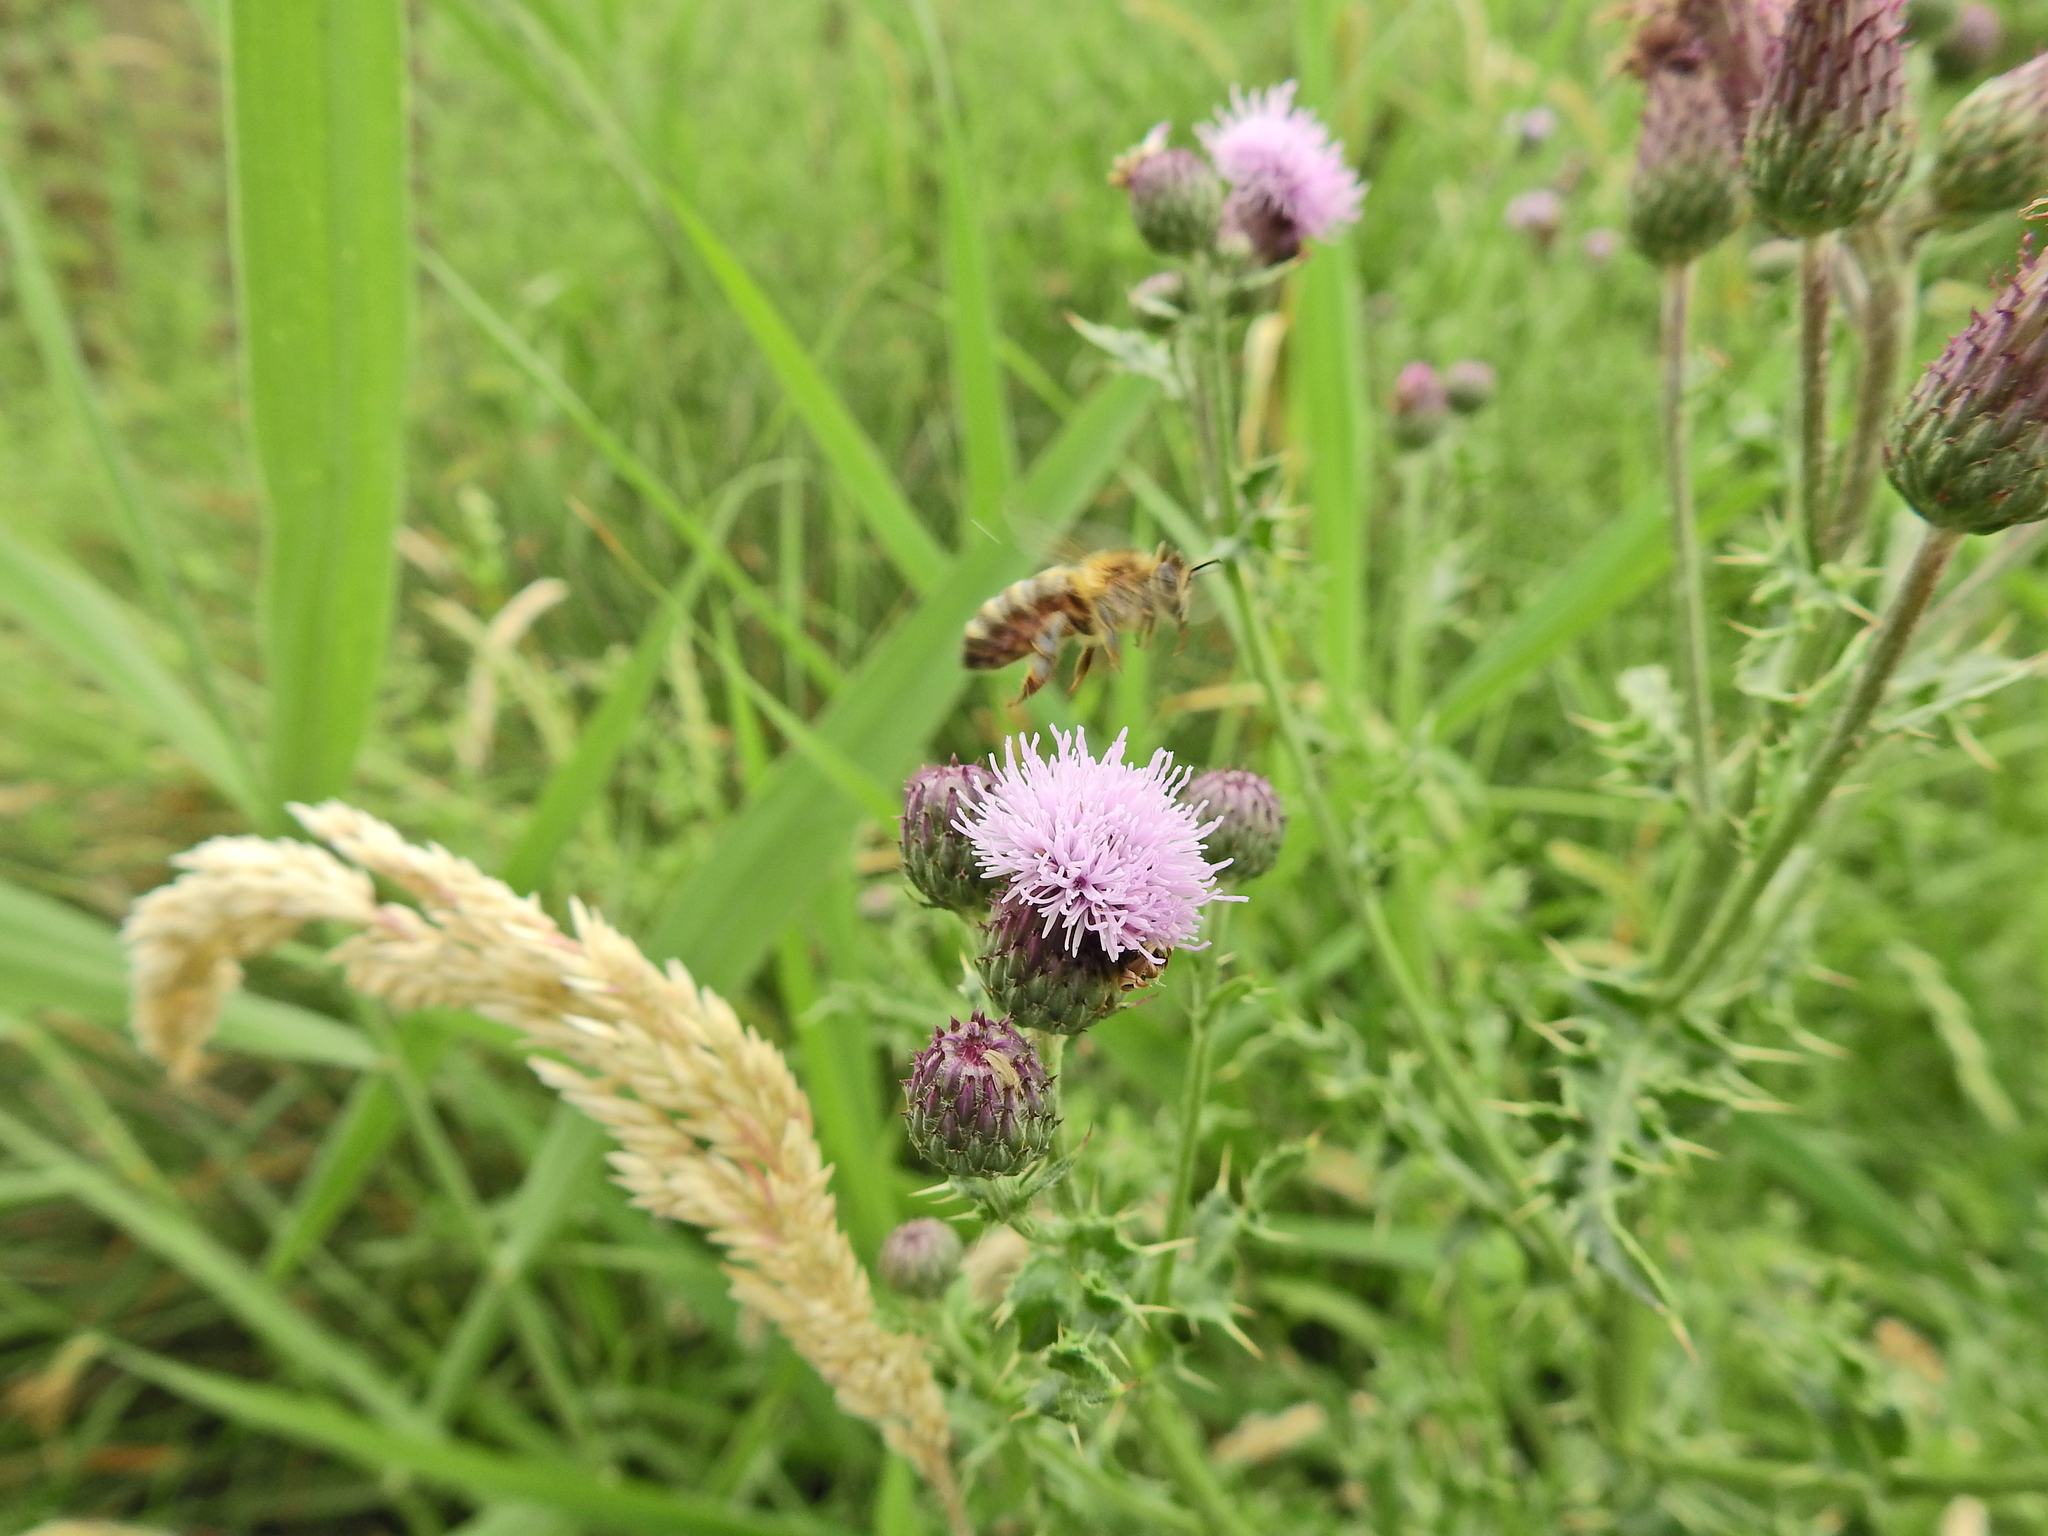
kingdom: Animalia
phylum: Arthropoda
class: Insecta
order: Hymenoptera
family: Apidae
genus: Apis
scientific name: Apis mellifera
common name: Honey bee
